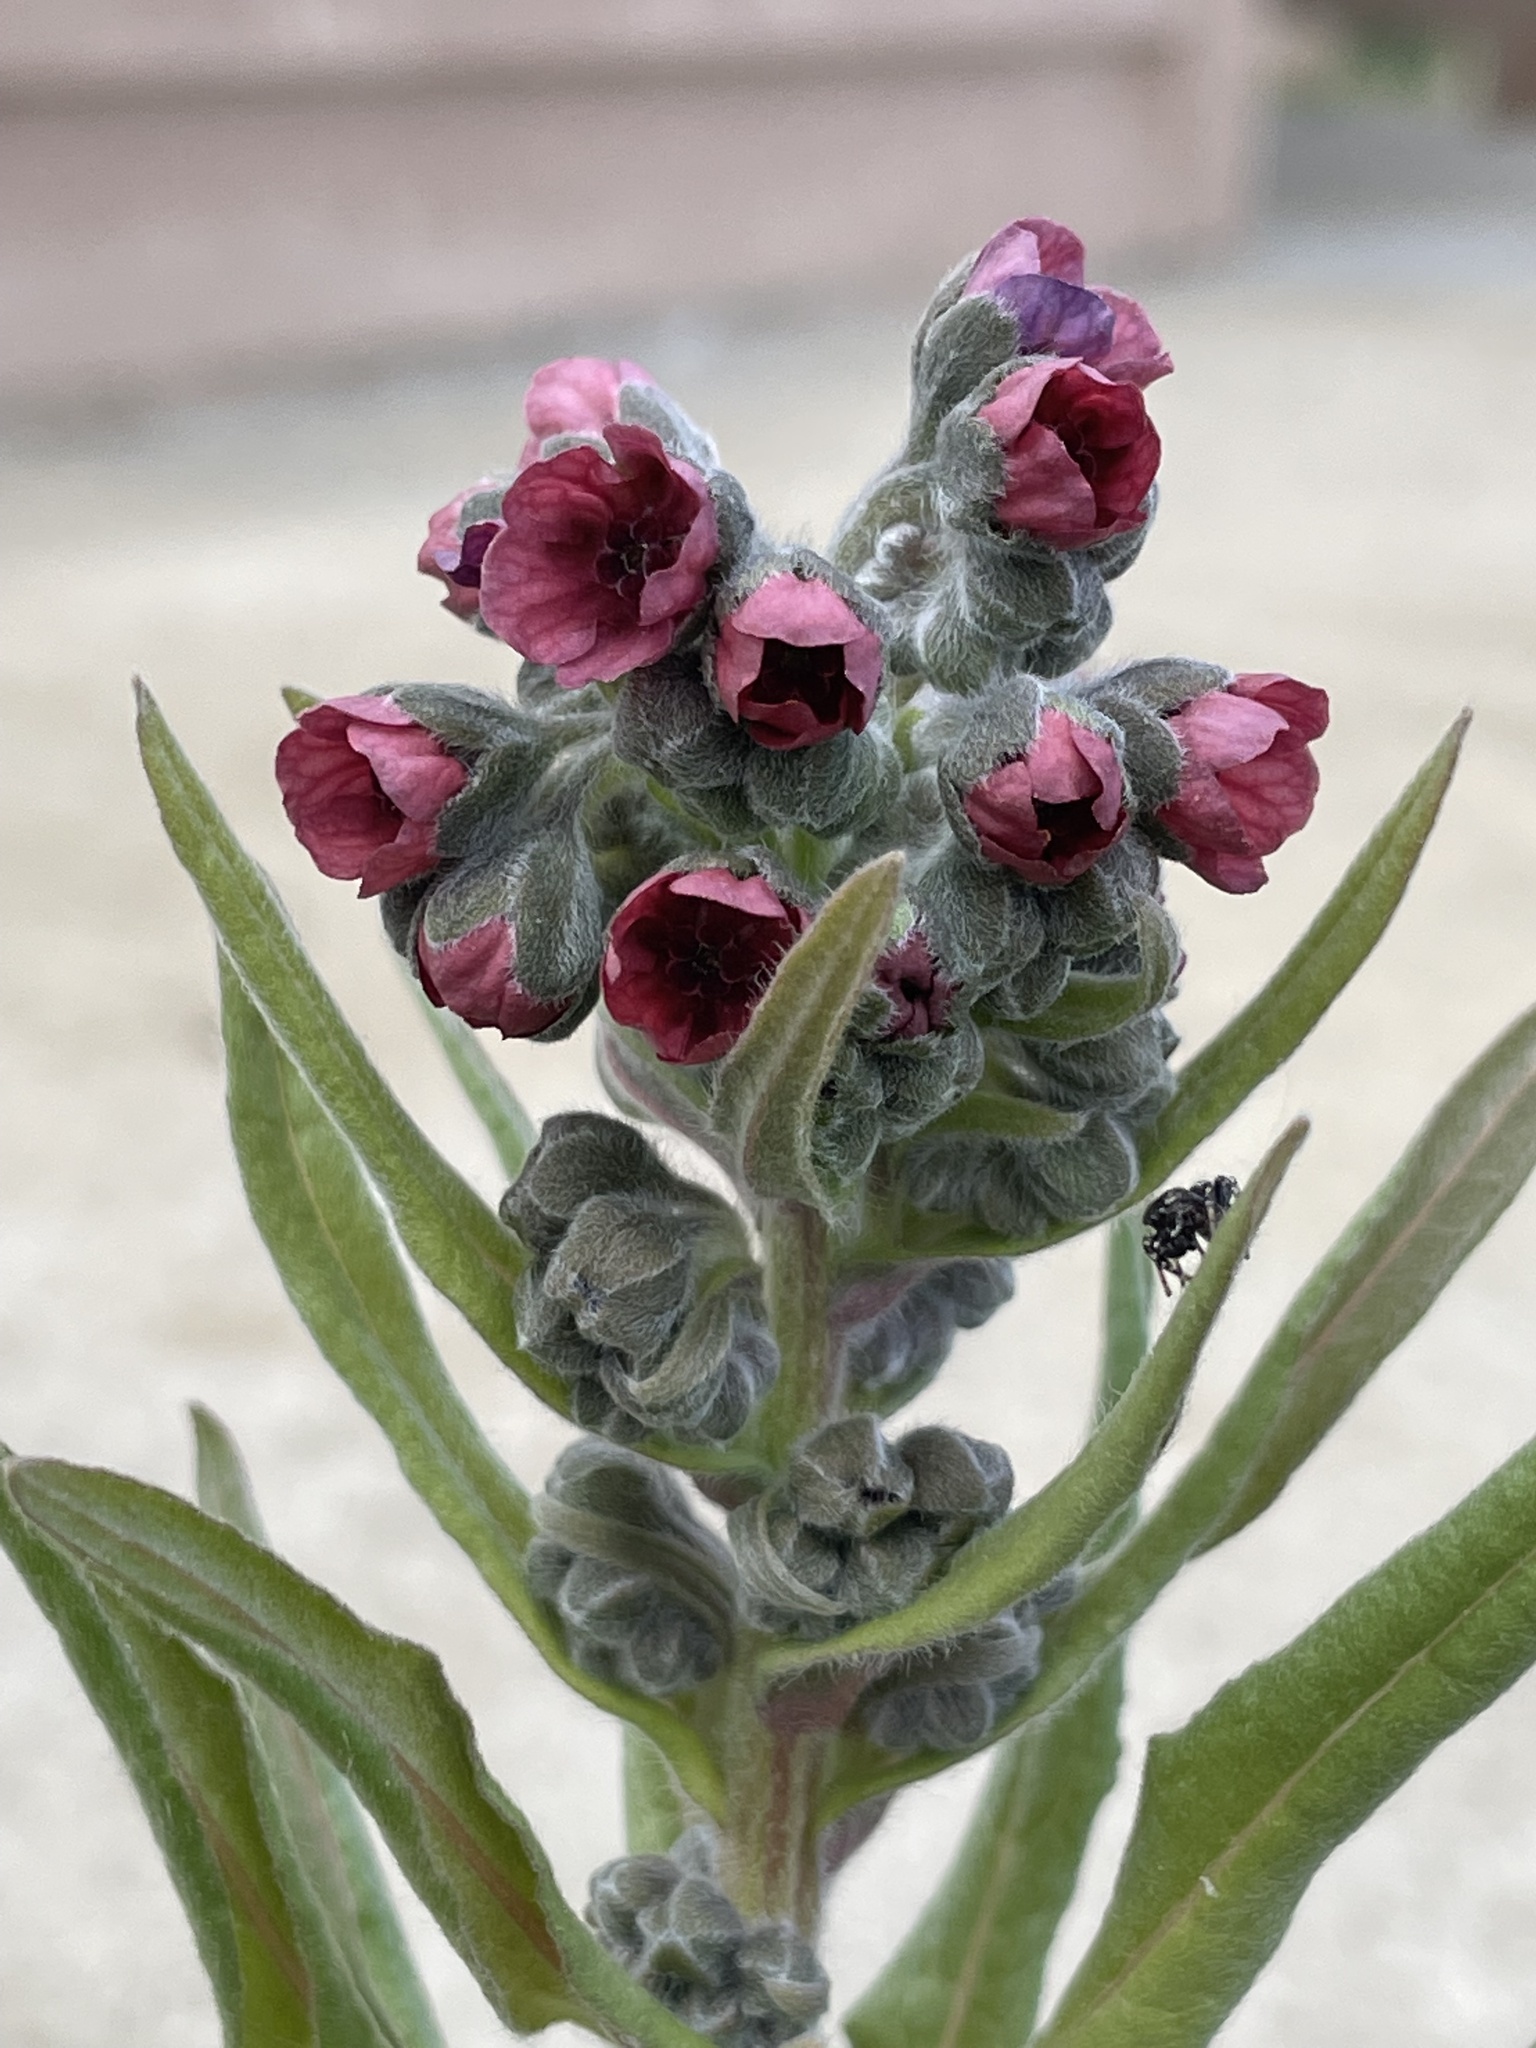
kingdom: Plantae
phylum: Tracheophyta
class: Magnoliopsida
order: Boraginales
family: Boraginaceae
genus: Cynoglossum
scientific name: Cynoglossum officinale
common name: Hound's-tongue
